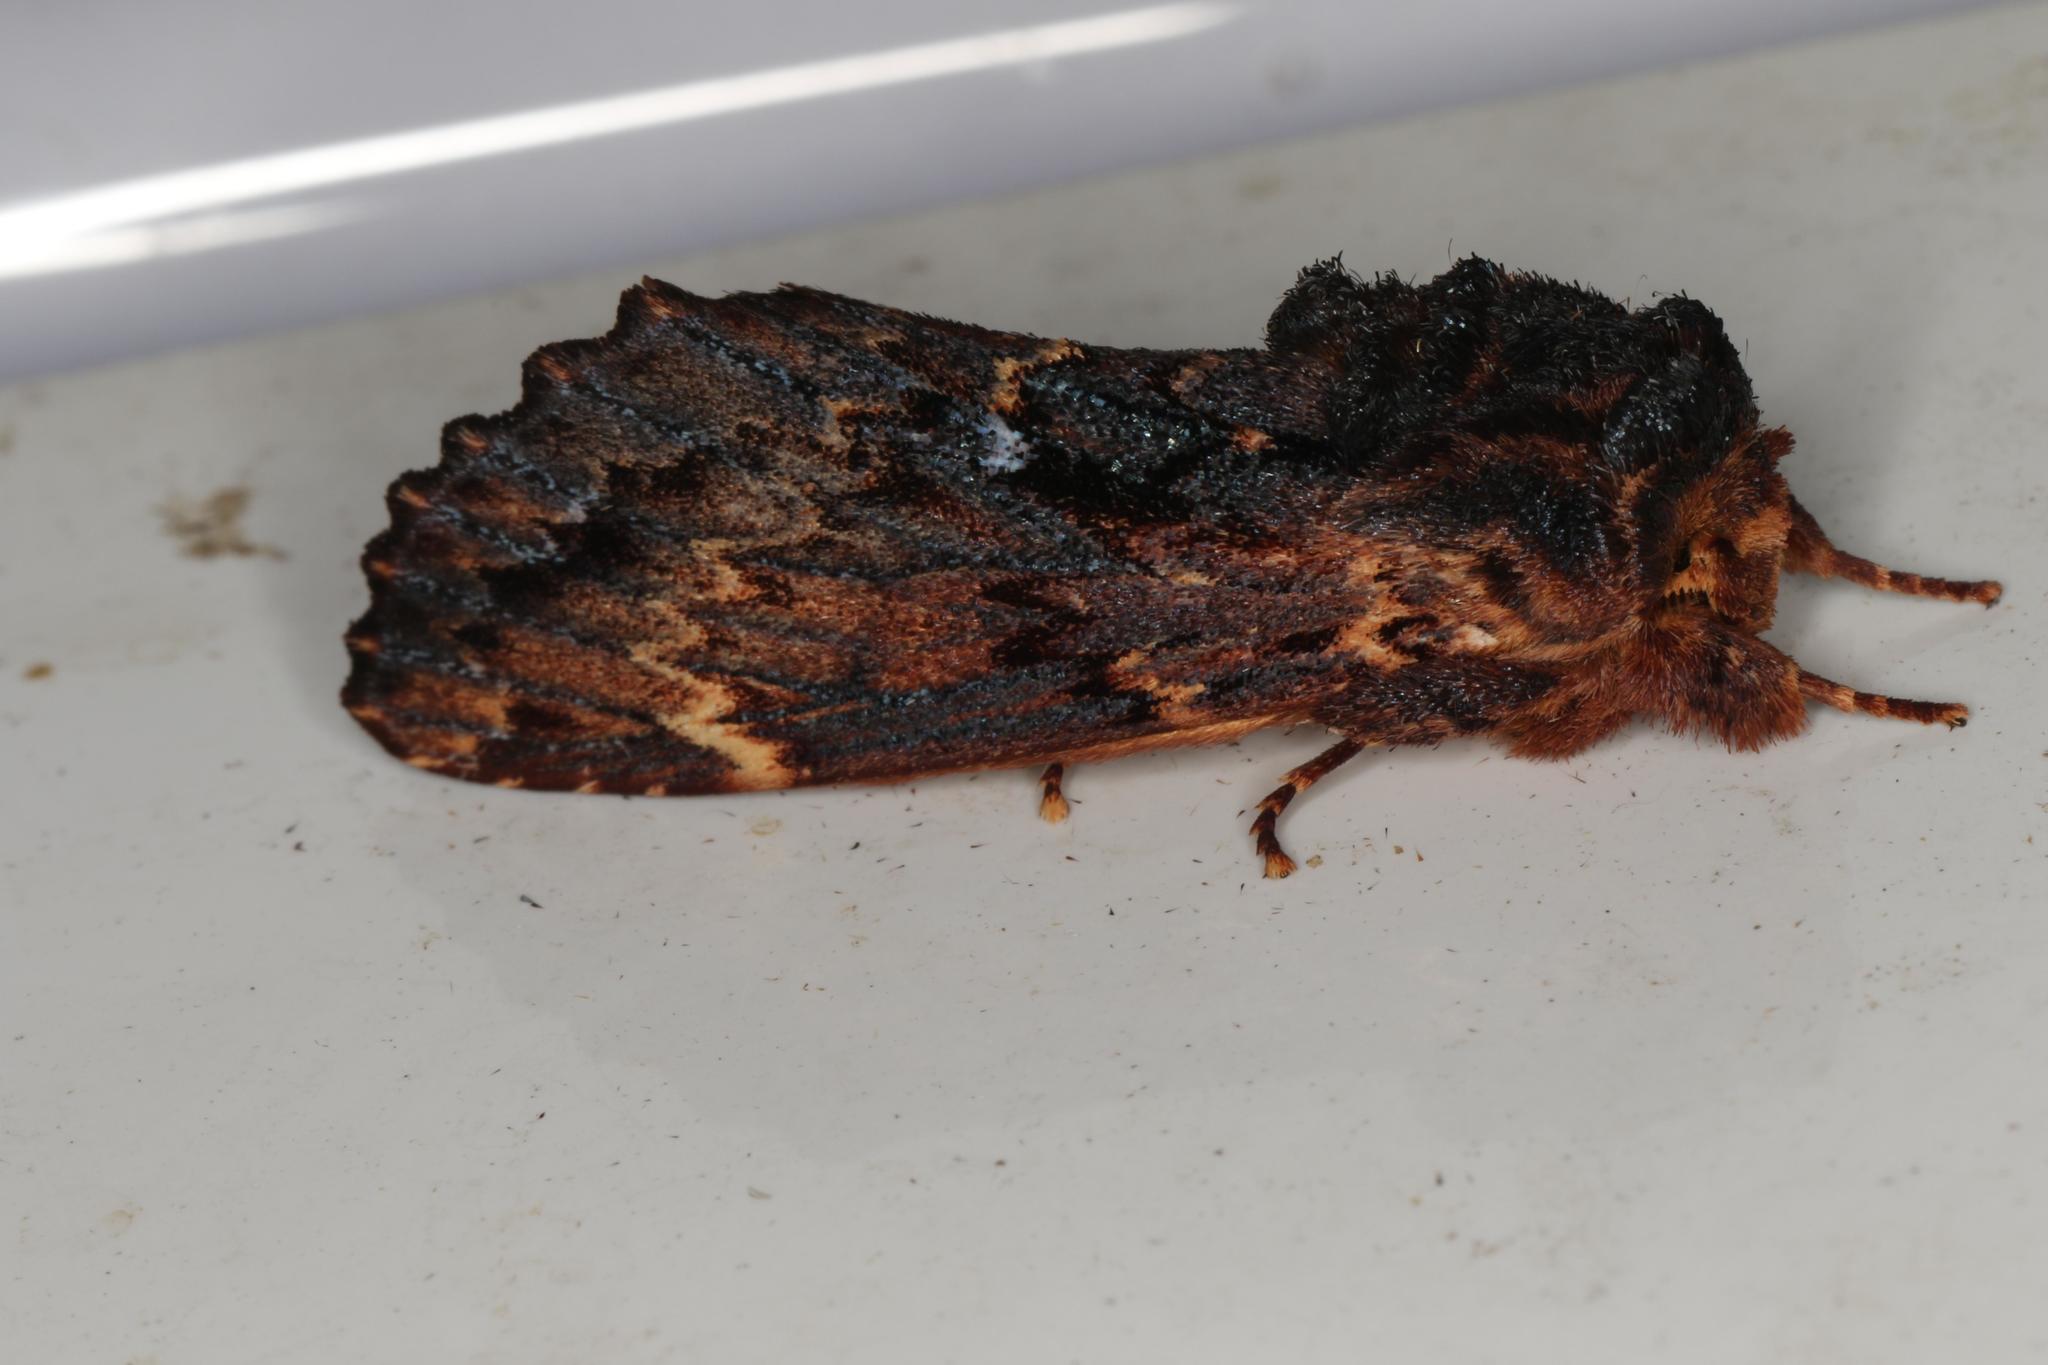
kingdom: Animalia
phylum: Arthropoda
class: Insecta
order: Lepidoptera
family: Notodontidae
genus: Sorama
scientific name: Sorama bicolor
